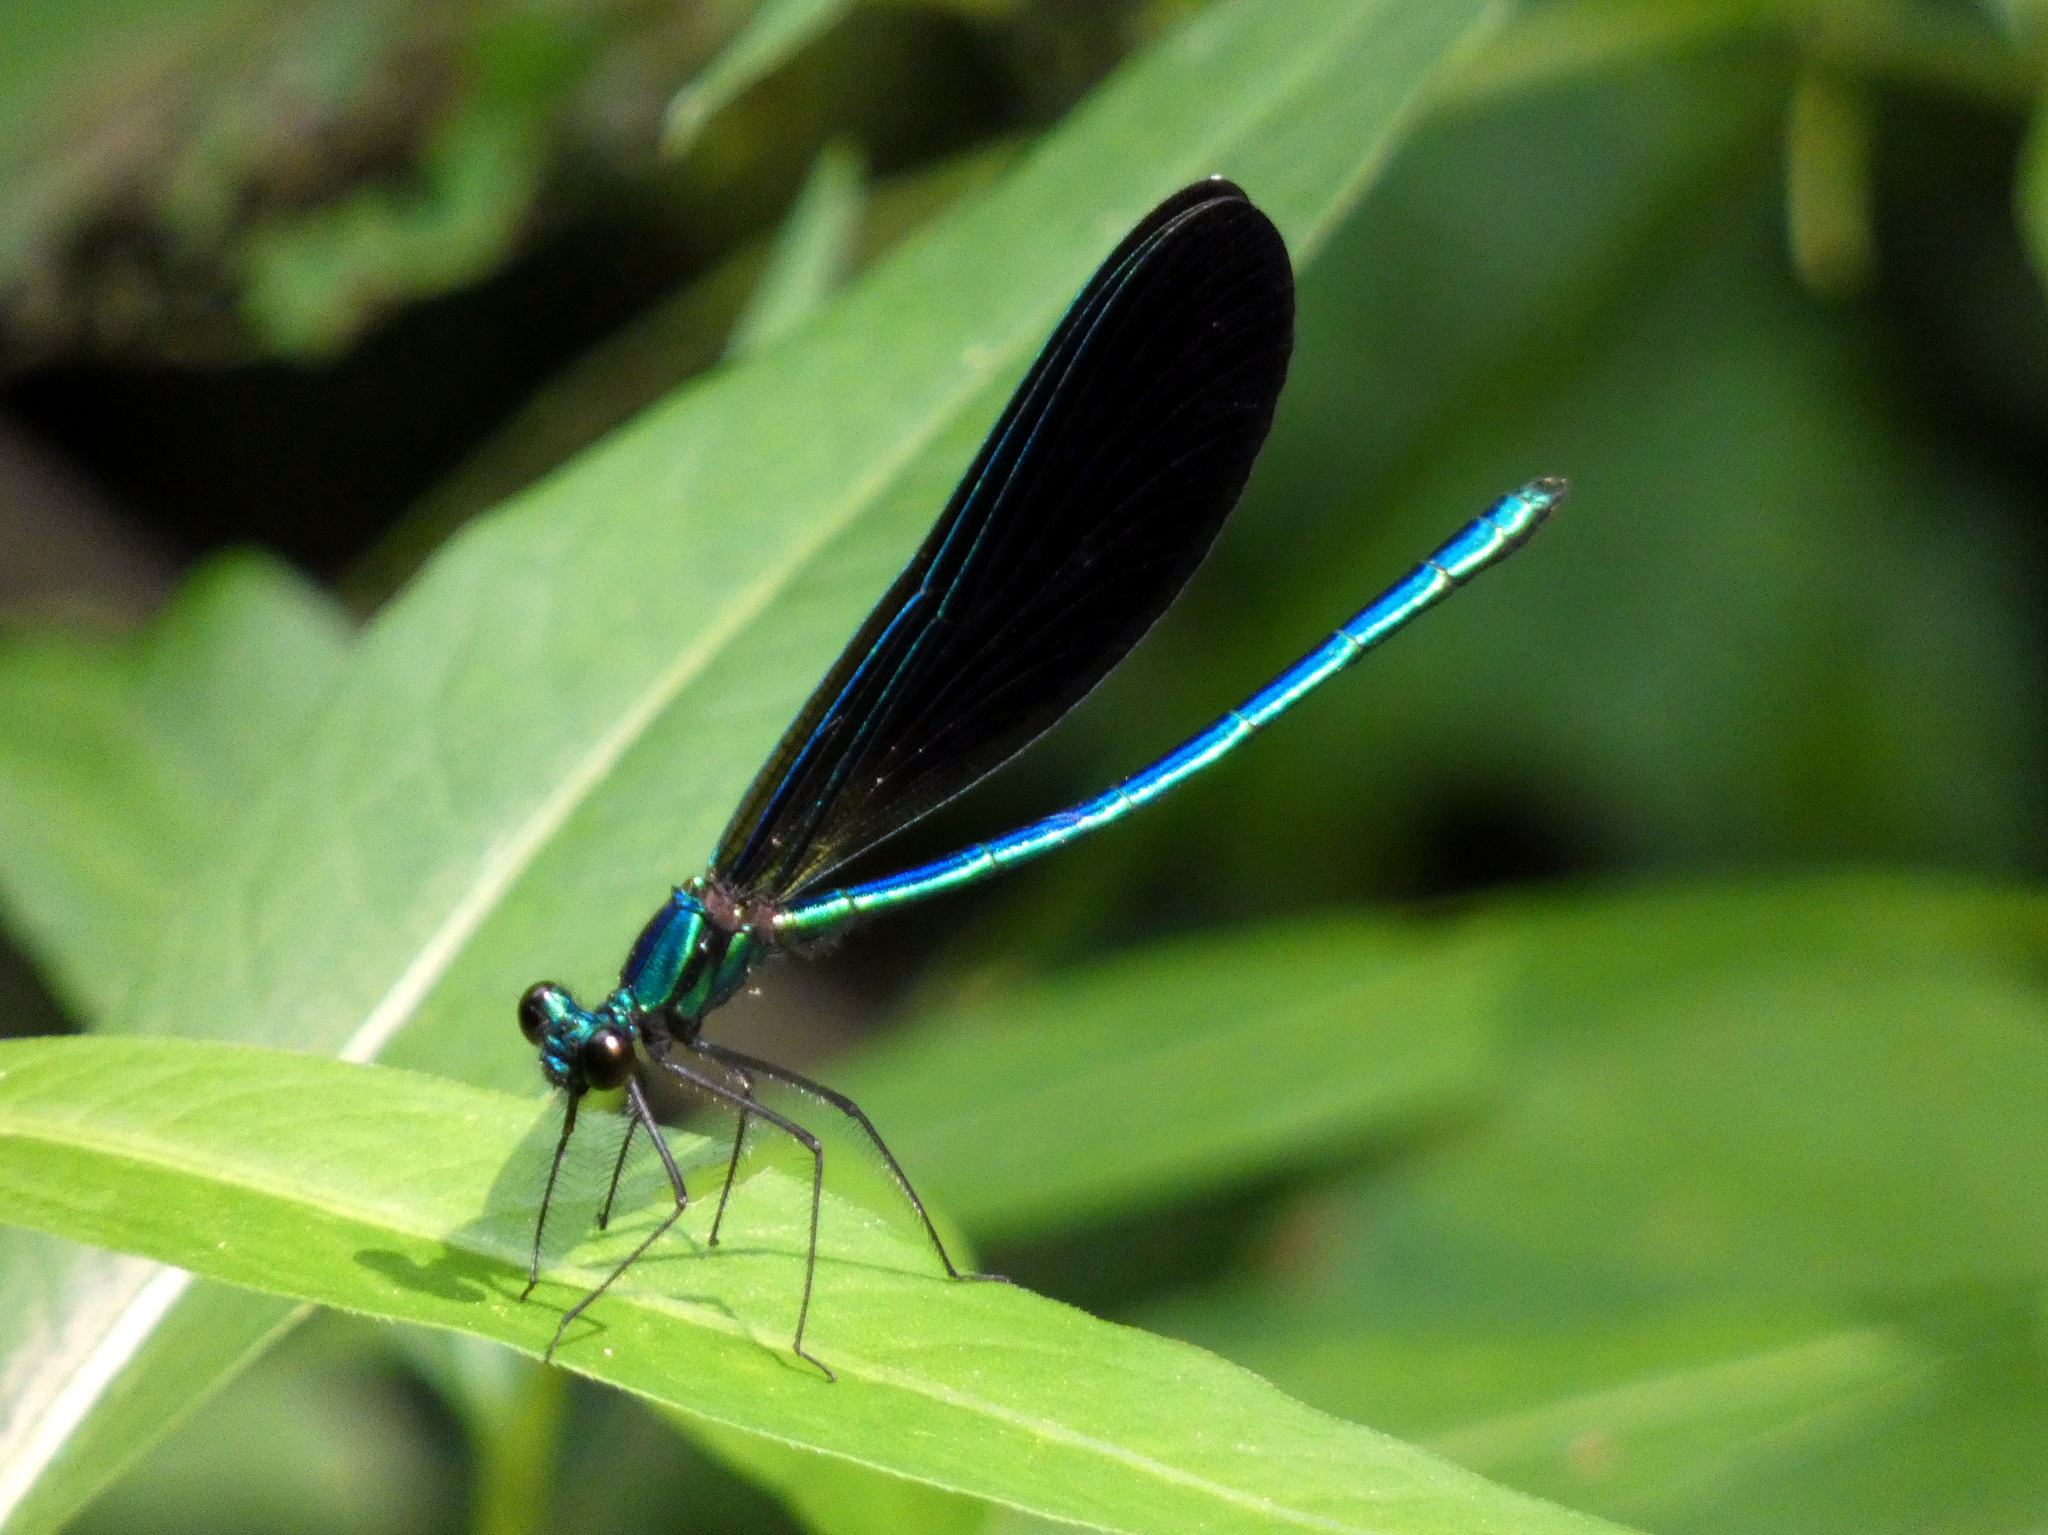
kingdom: Animalia
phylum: Arthropoda
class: Insecta
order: Odonata
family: Calopterygidae
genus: Calopteryx
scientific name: Calopteryx maculata
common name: Ebony jewelwing
